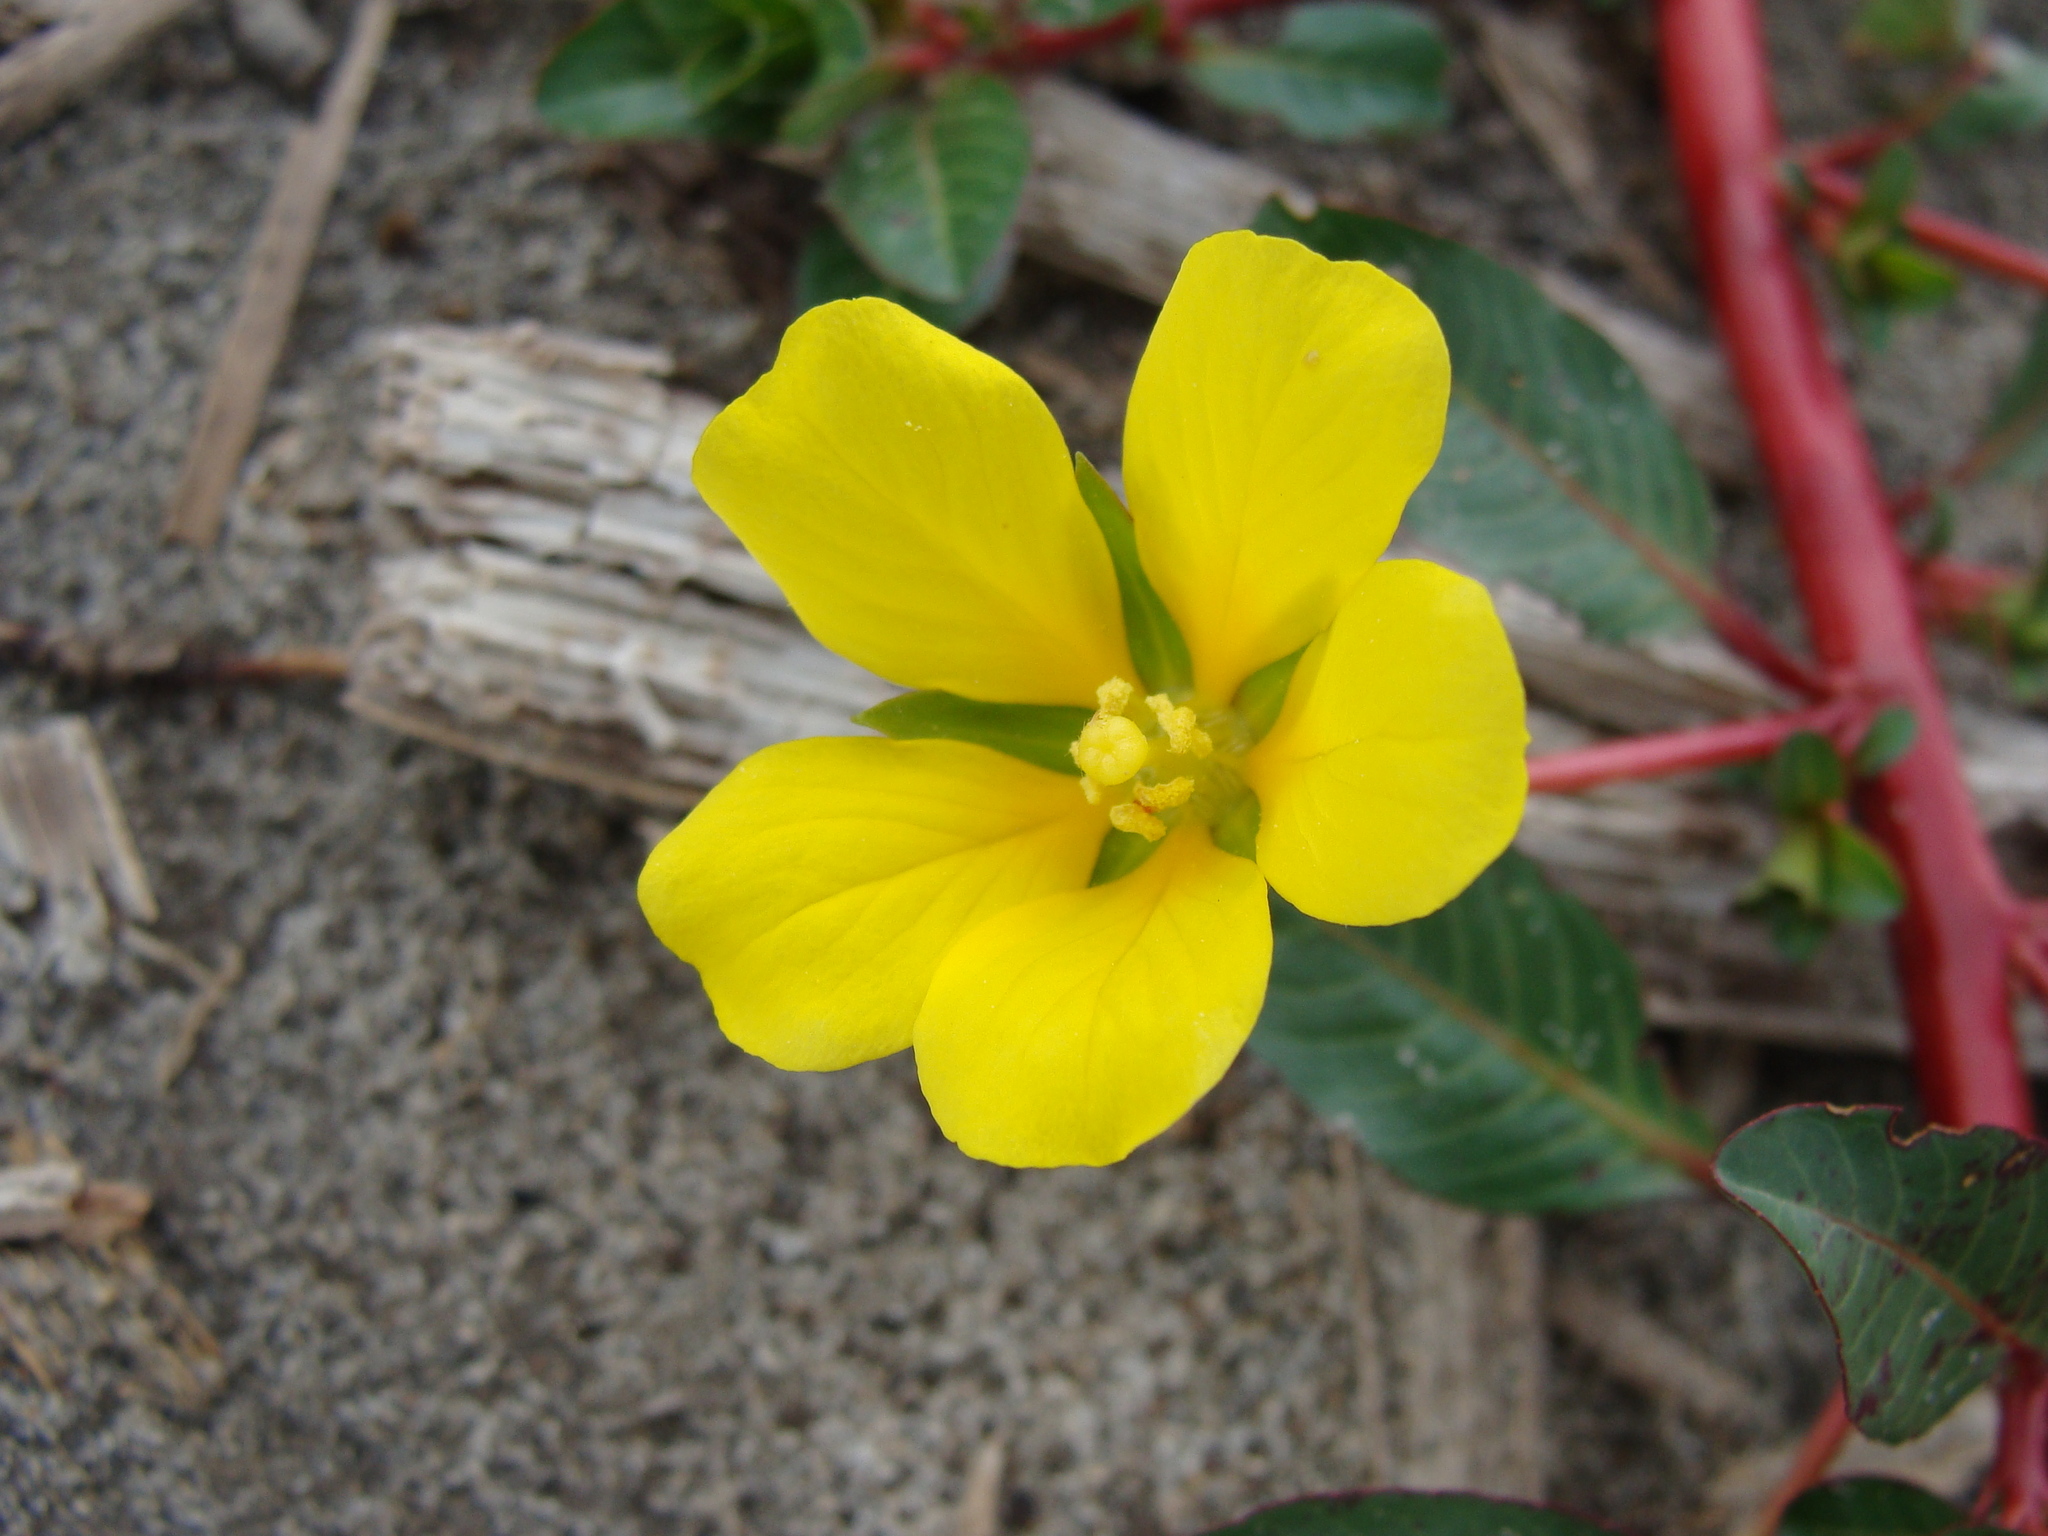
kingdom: Plantae
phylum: Tracheophyta
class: Magnoliopsida
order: Myrtales
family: Onagraceae
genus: Ludwigia
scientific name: Ludwigia peploides
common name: Floating primrose-willow
